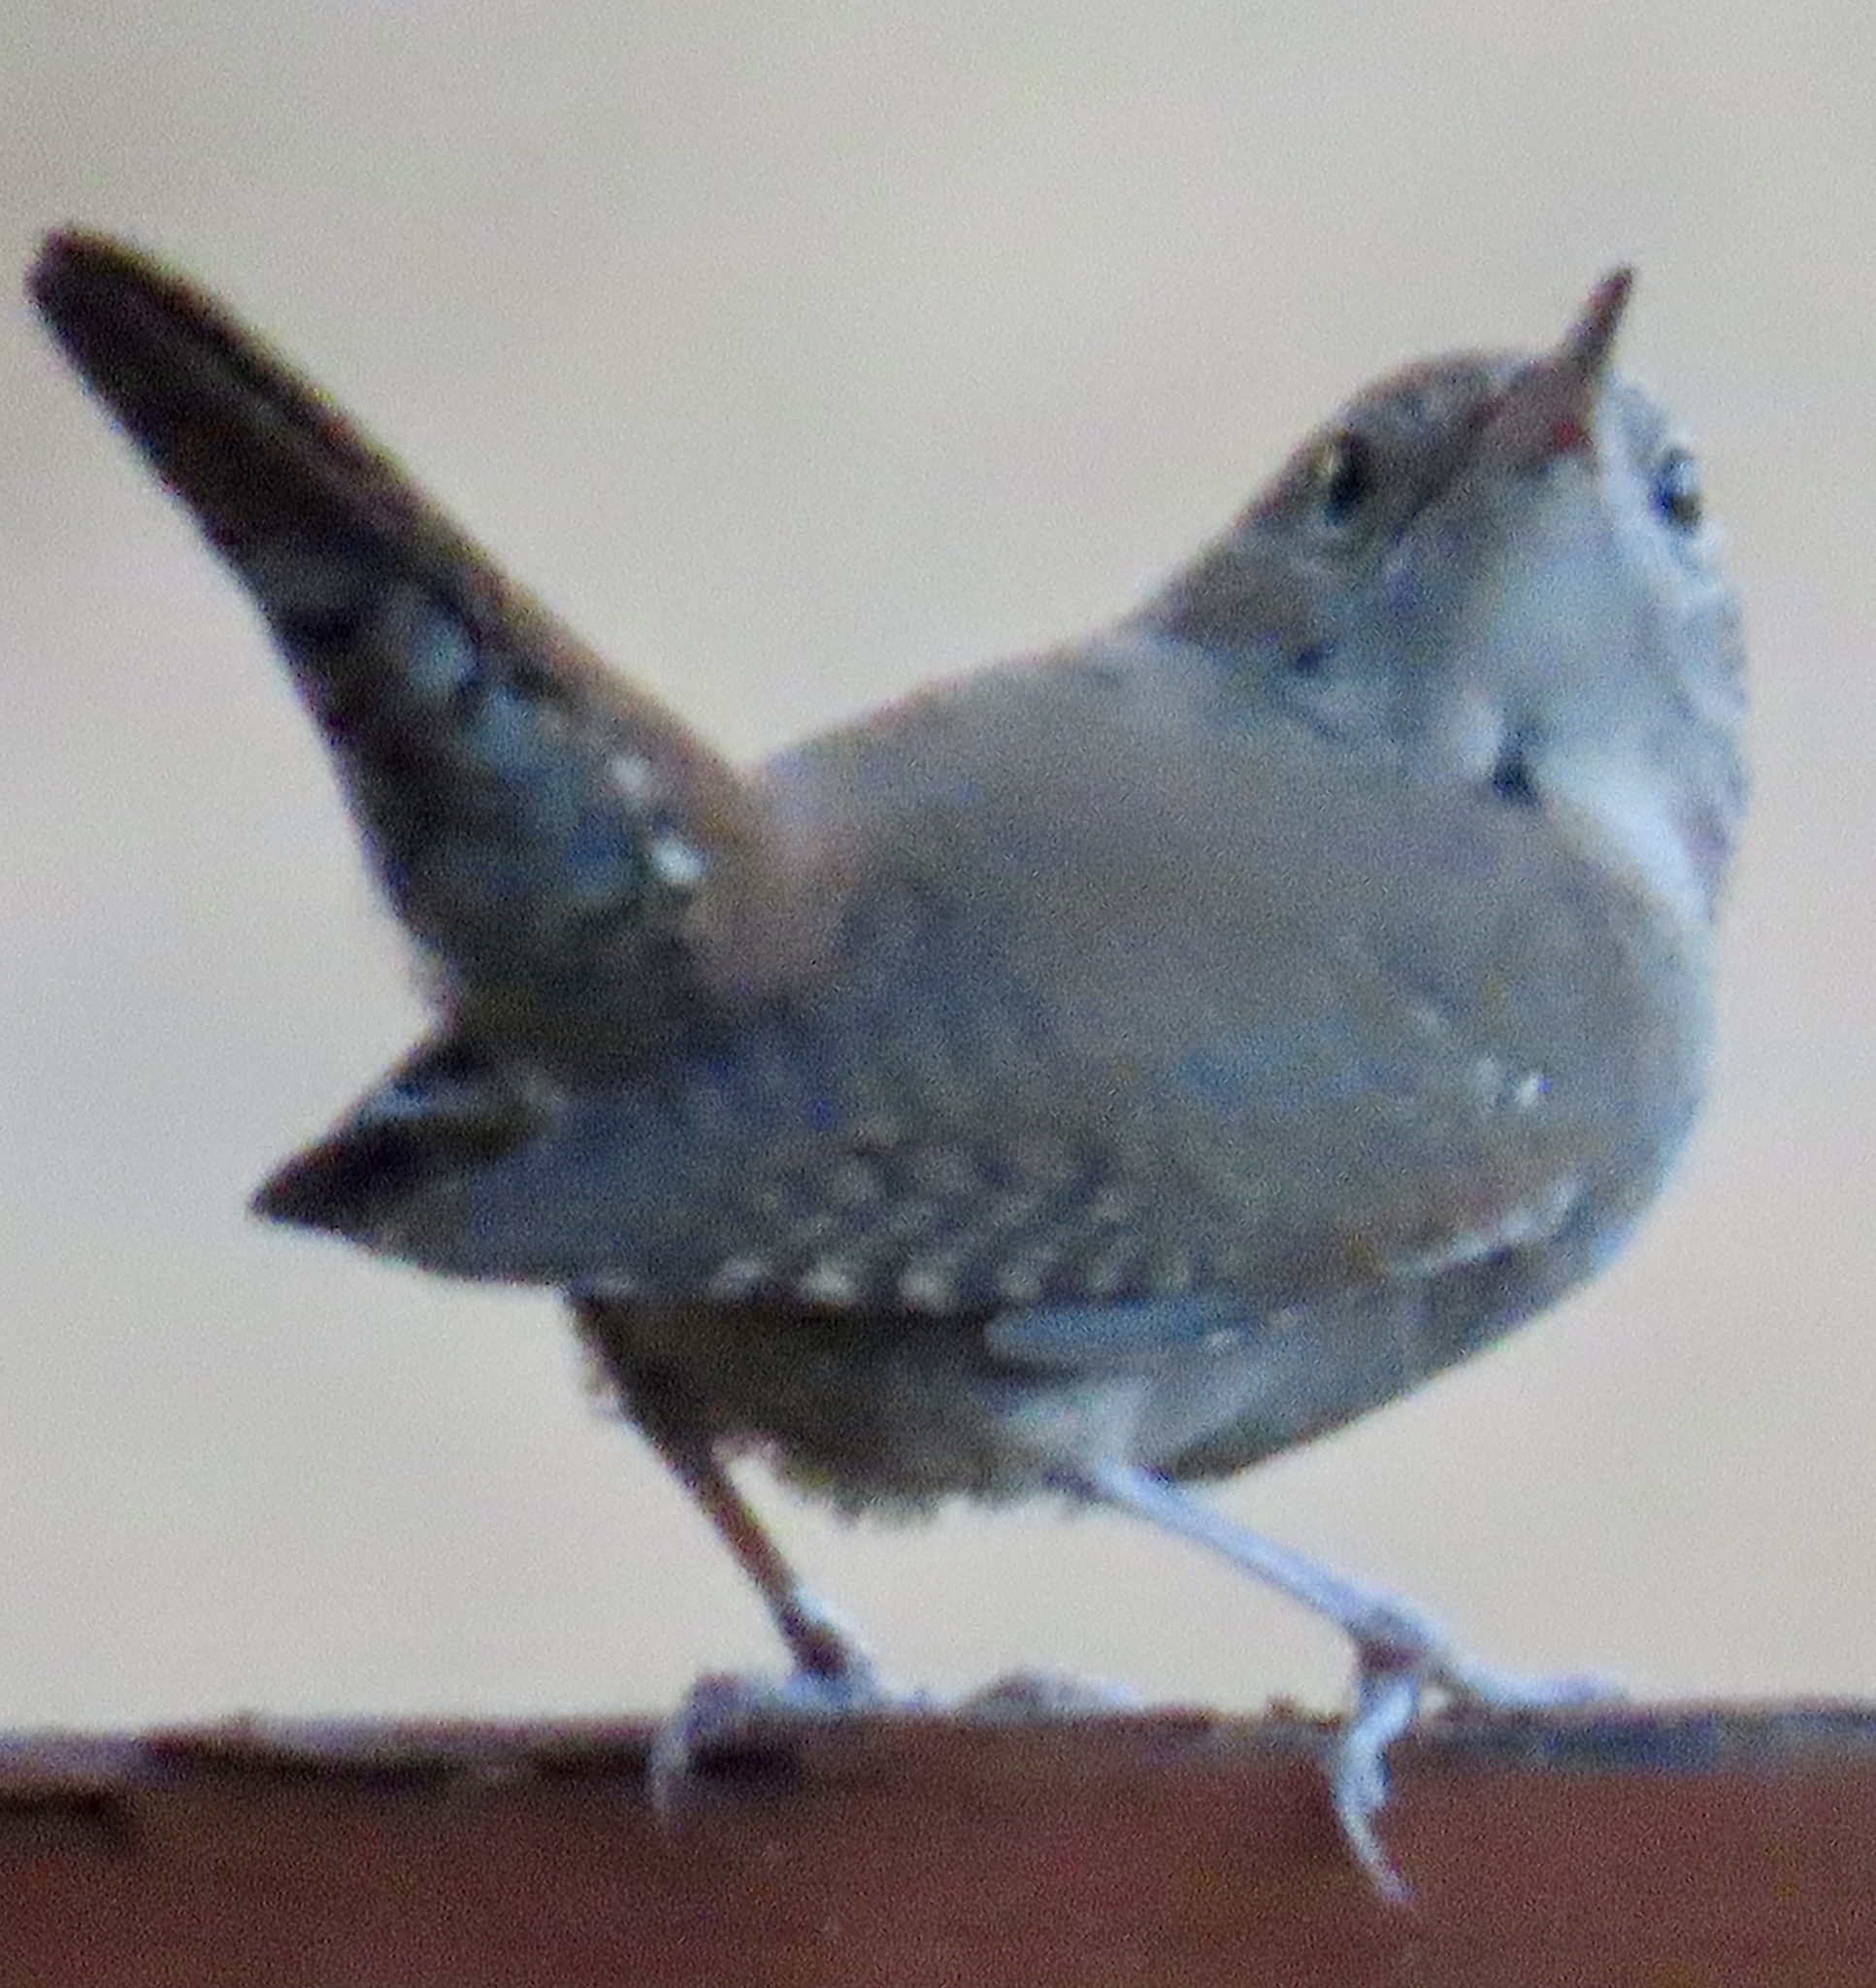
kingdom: Animalia
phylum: Chordata
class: Aves
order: Passeriformes
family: Troglodytidae
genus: Troglodytes
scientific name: Troglodytes aedon
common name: House wren
